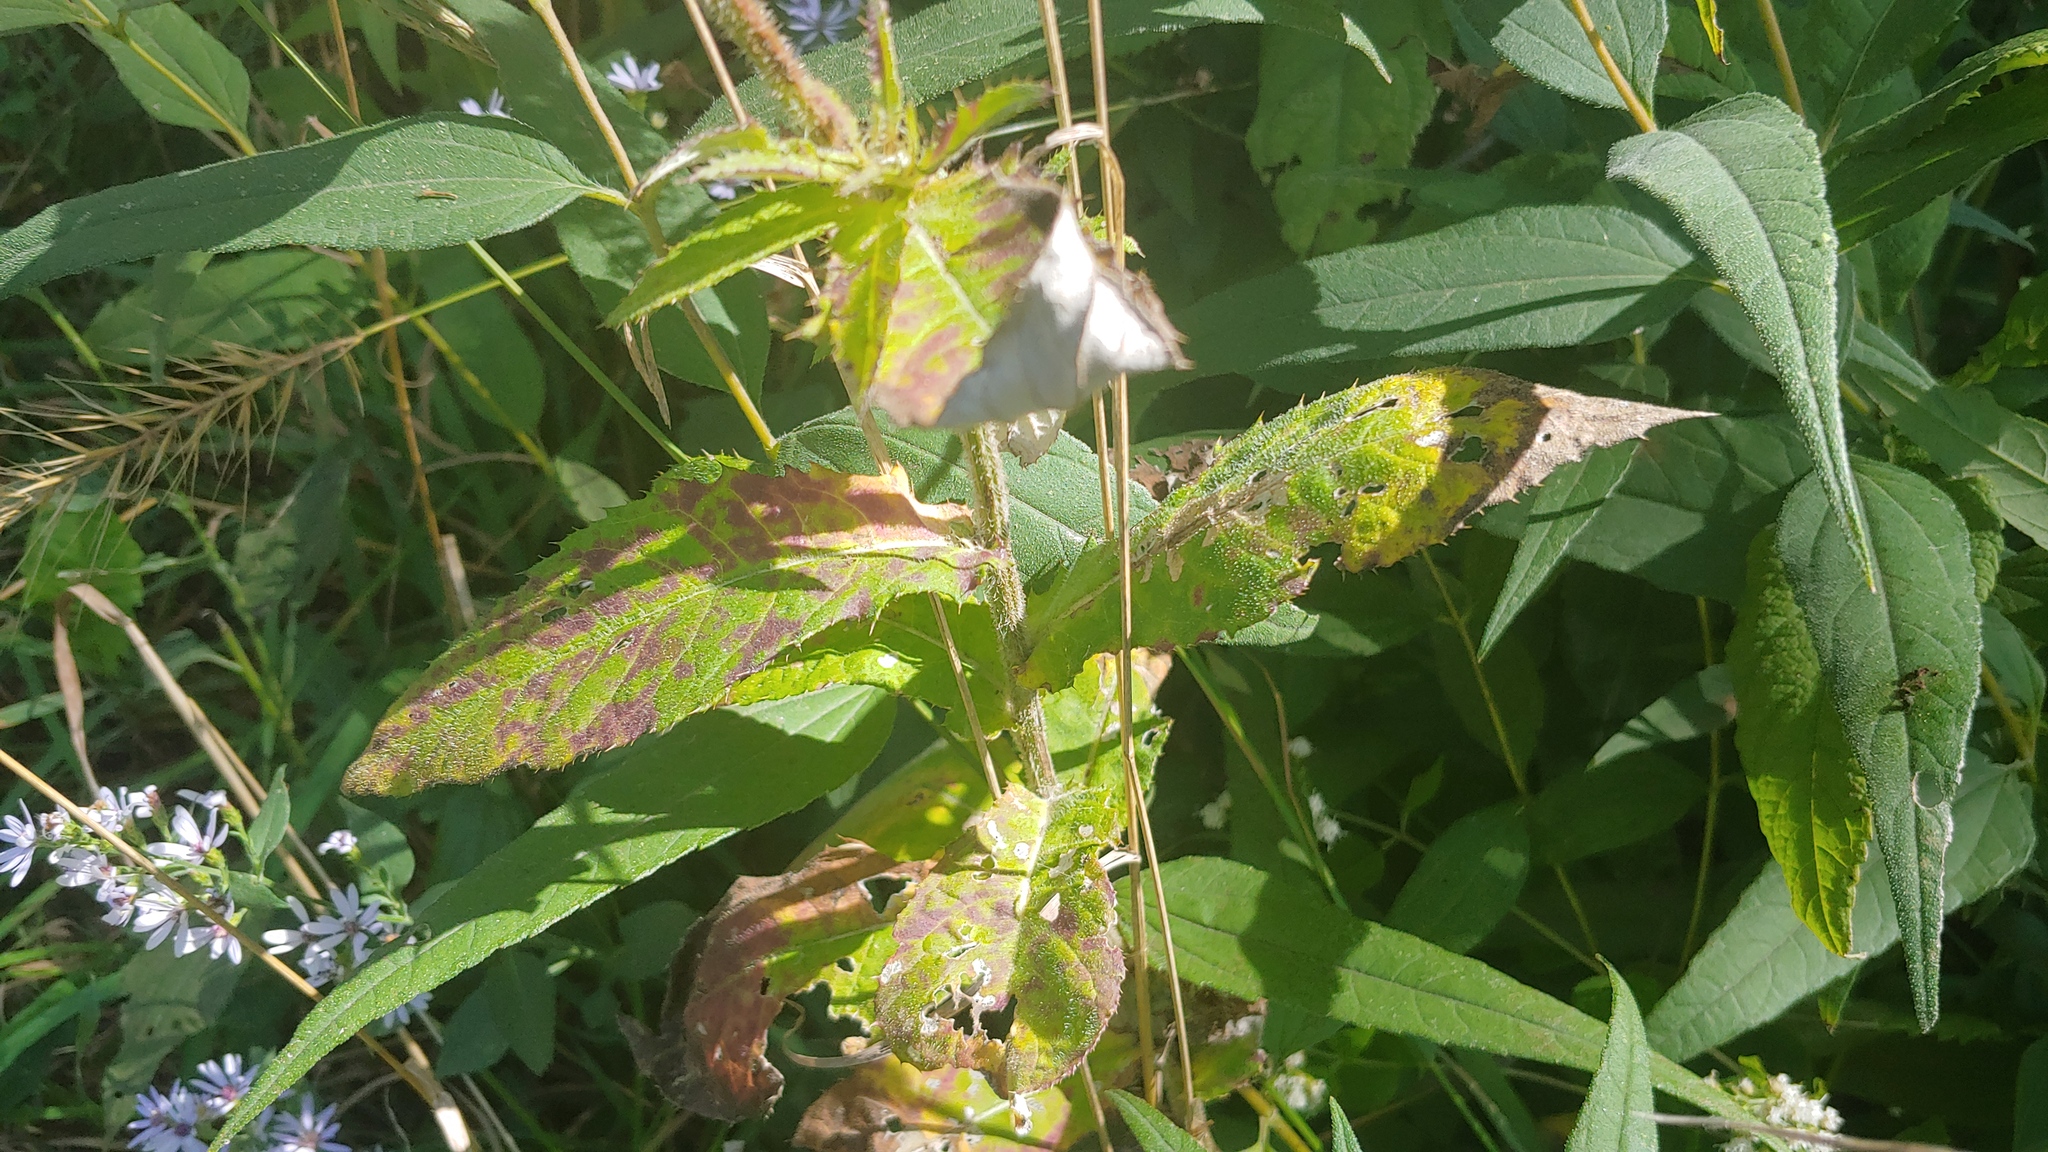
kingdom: Plantae
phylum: Tracheophyta
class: Magnoliopsida
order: Asterales
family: Asteraceae
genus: Cirsium
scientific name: Cirsium altissimum
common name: Roadside thistle
